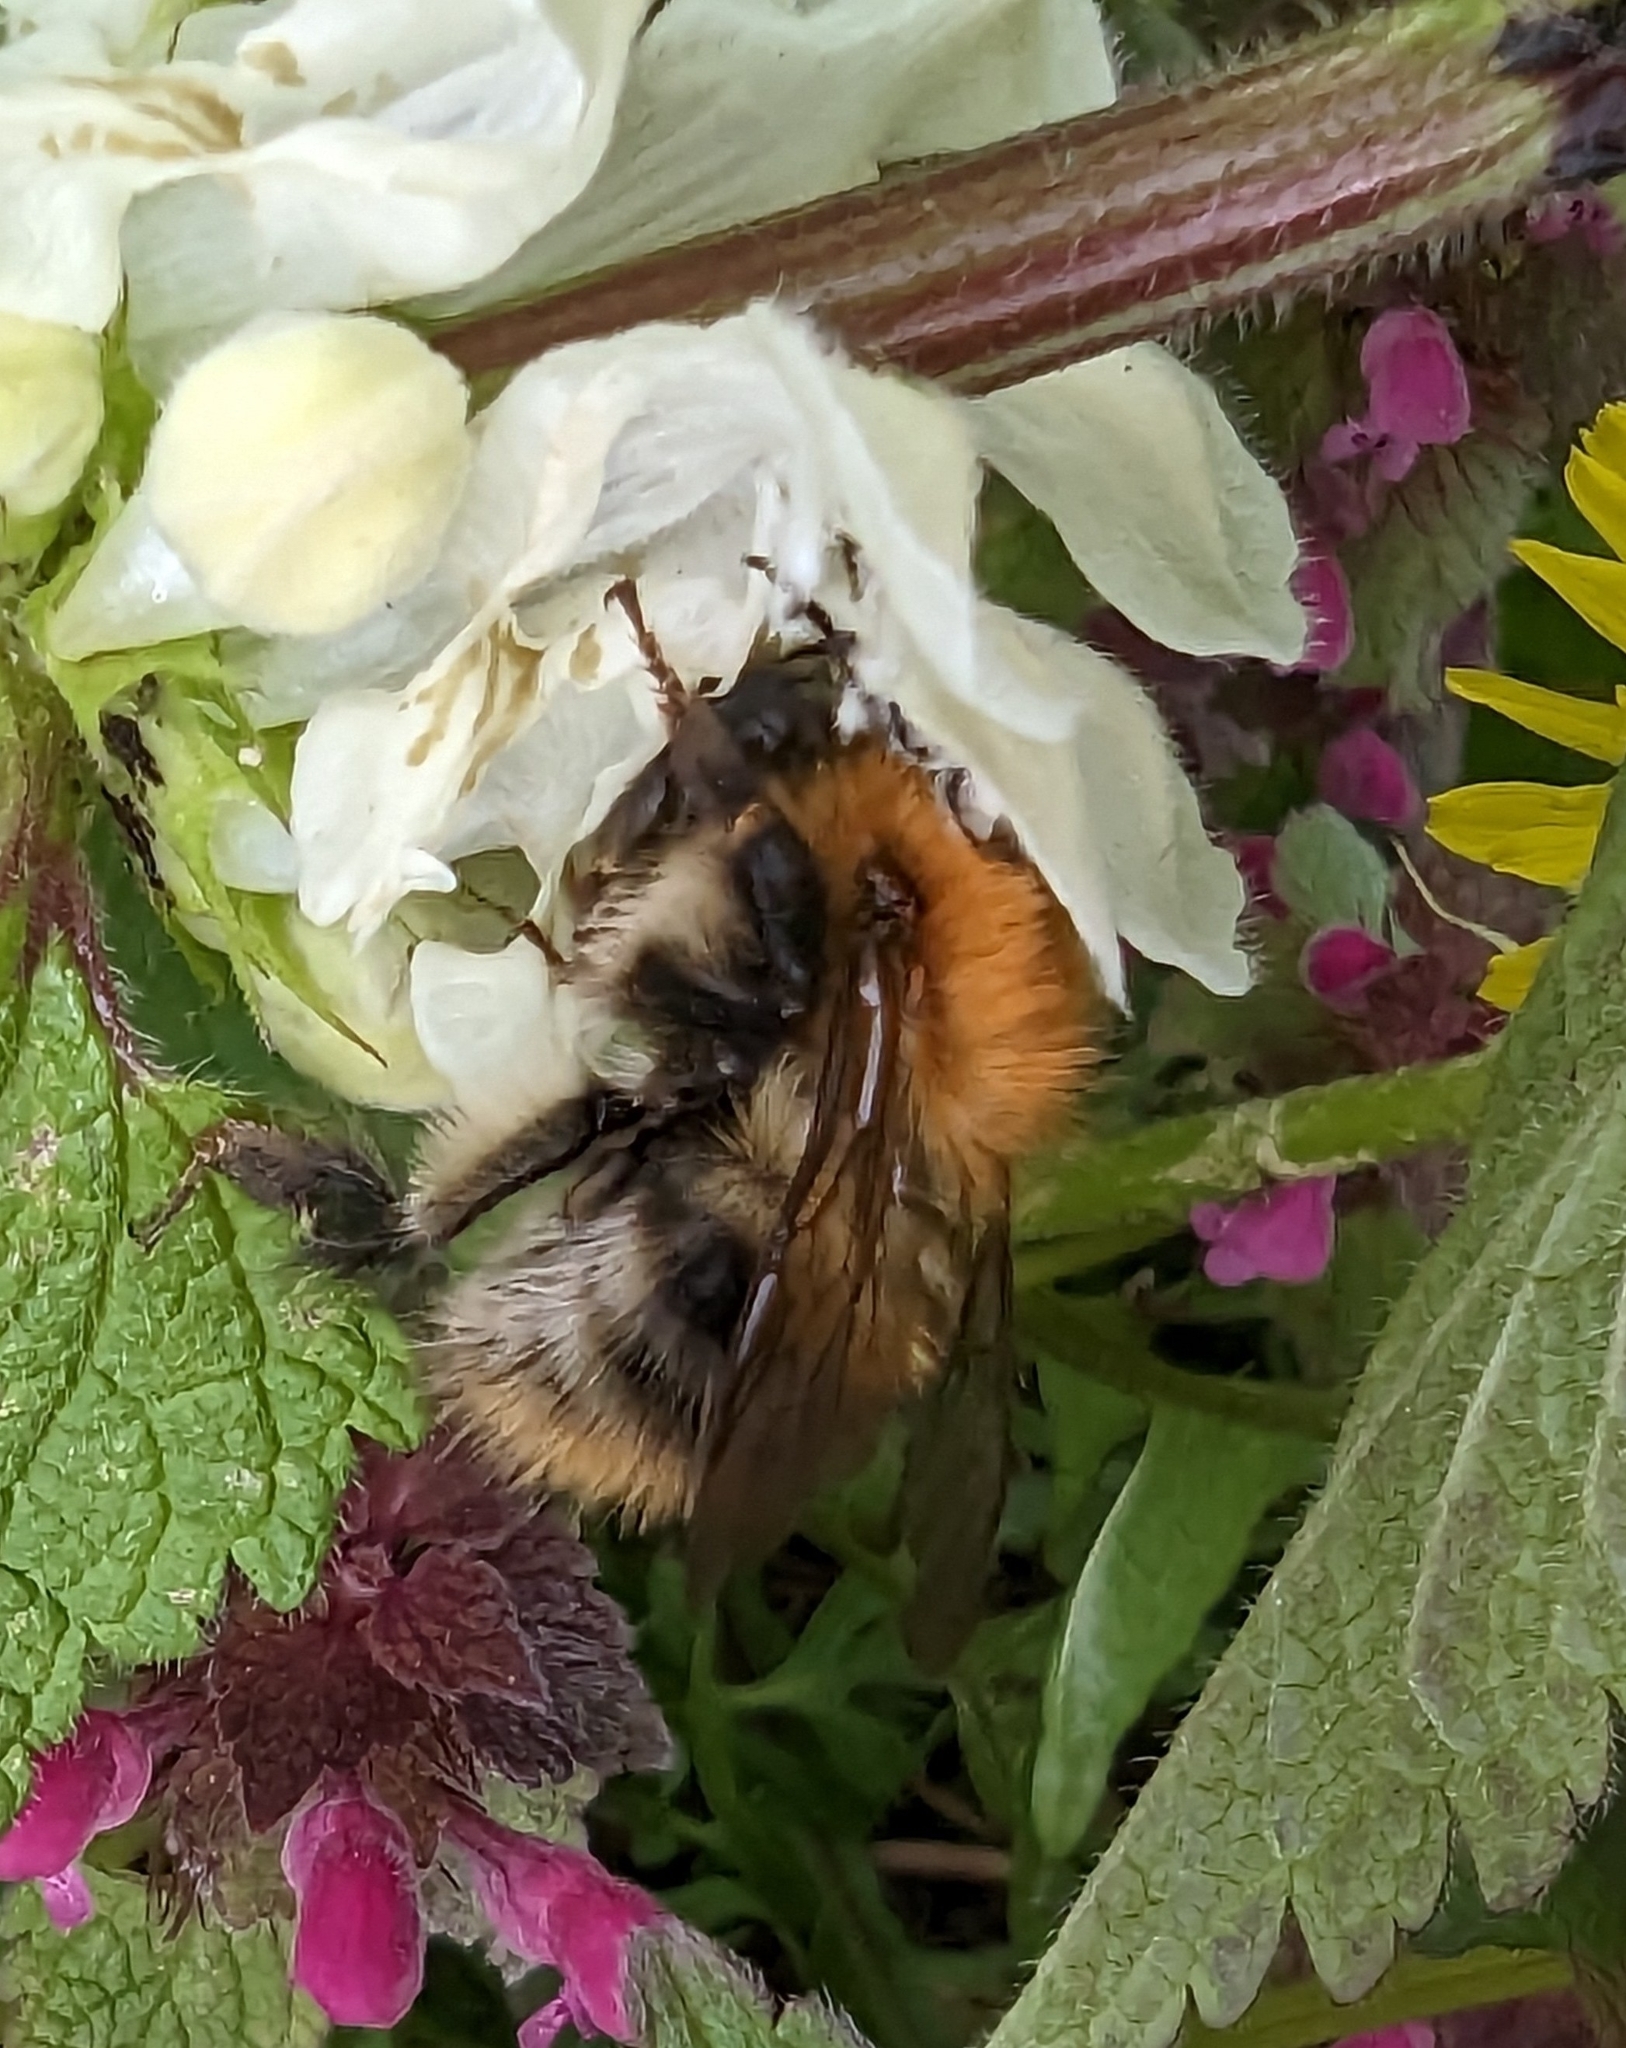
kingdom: Animalia
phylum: Arthropoda
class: Insecta
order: Hymenoptera
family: Apidae
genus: Bombus
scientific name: Bombus pascuorum
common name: Common carder bee
